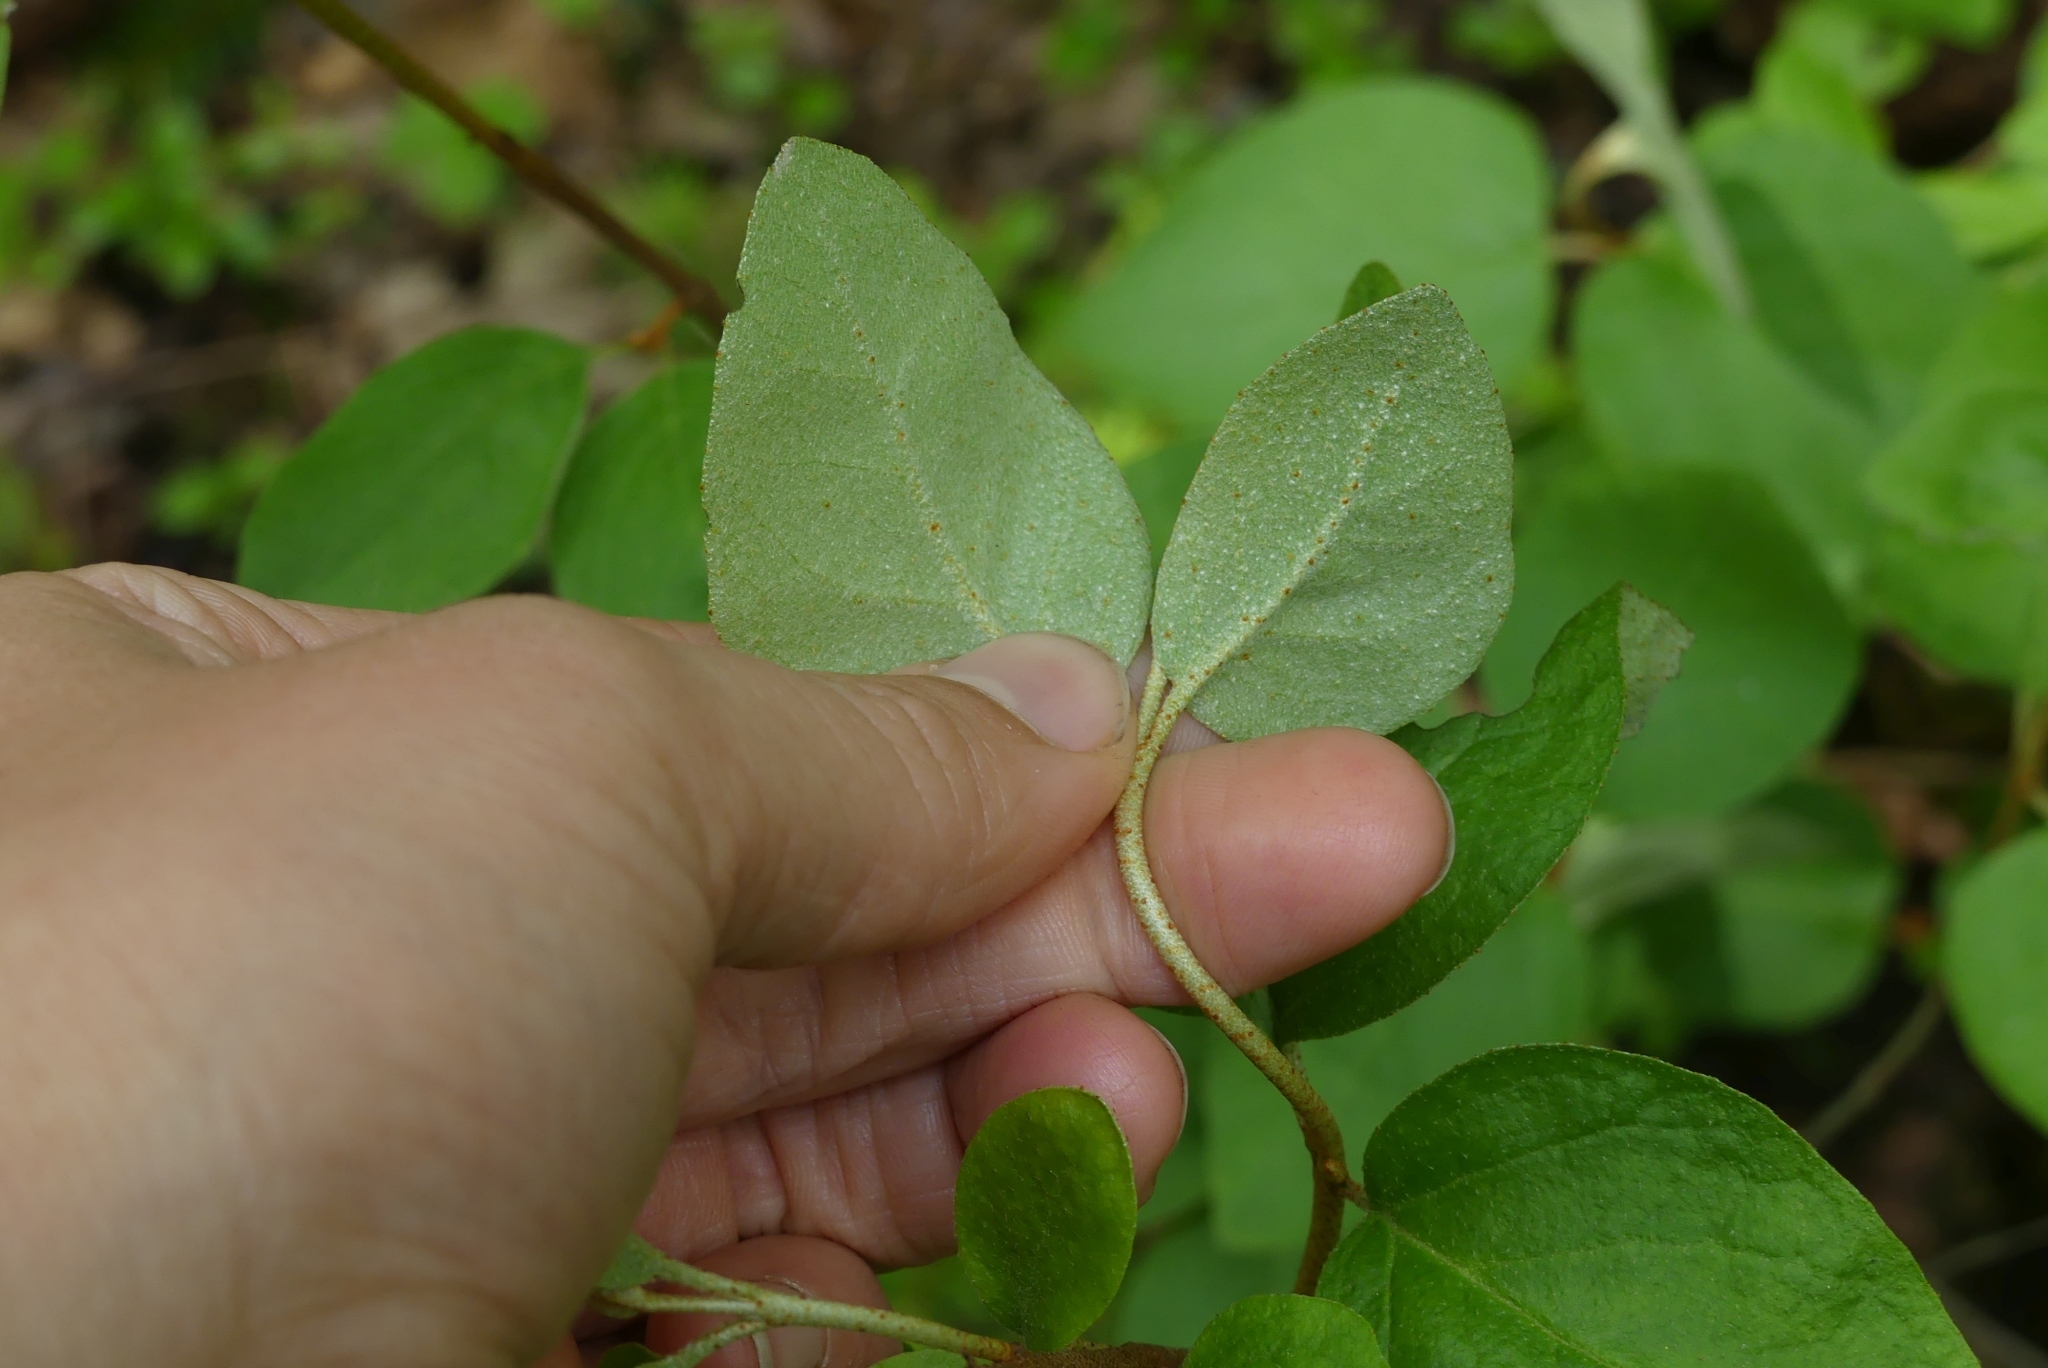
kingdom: Plantae
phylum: Tracheophyta
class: Magnoliopsida
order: Rosales
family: Elaeagnaceae
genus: Shepherdia
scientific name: Shepherdia canadensis
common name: Soapberry
